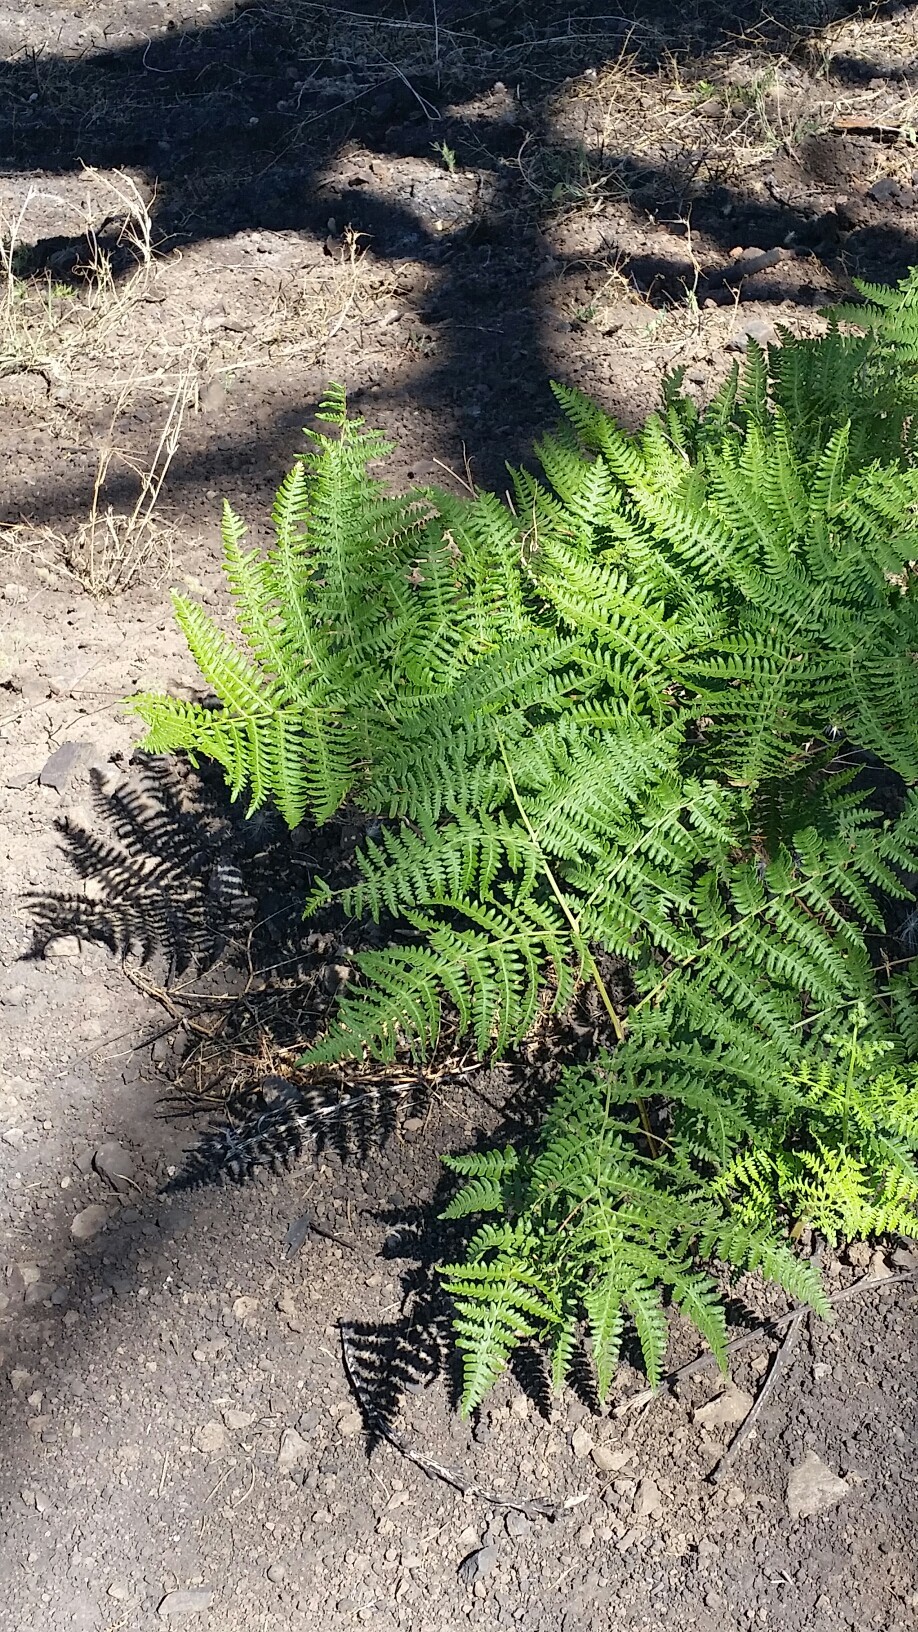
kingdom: Plantae
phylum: Tracheophyta
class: Polypodiopsida
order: Polypodiales
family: Dennstaedtiaceae
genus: Pteridium
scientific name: Pteridium aquilinum
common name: Bracken
